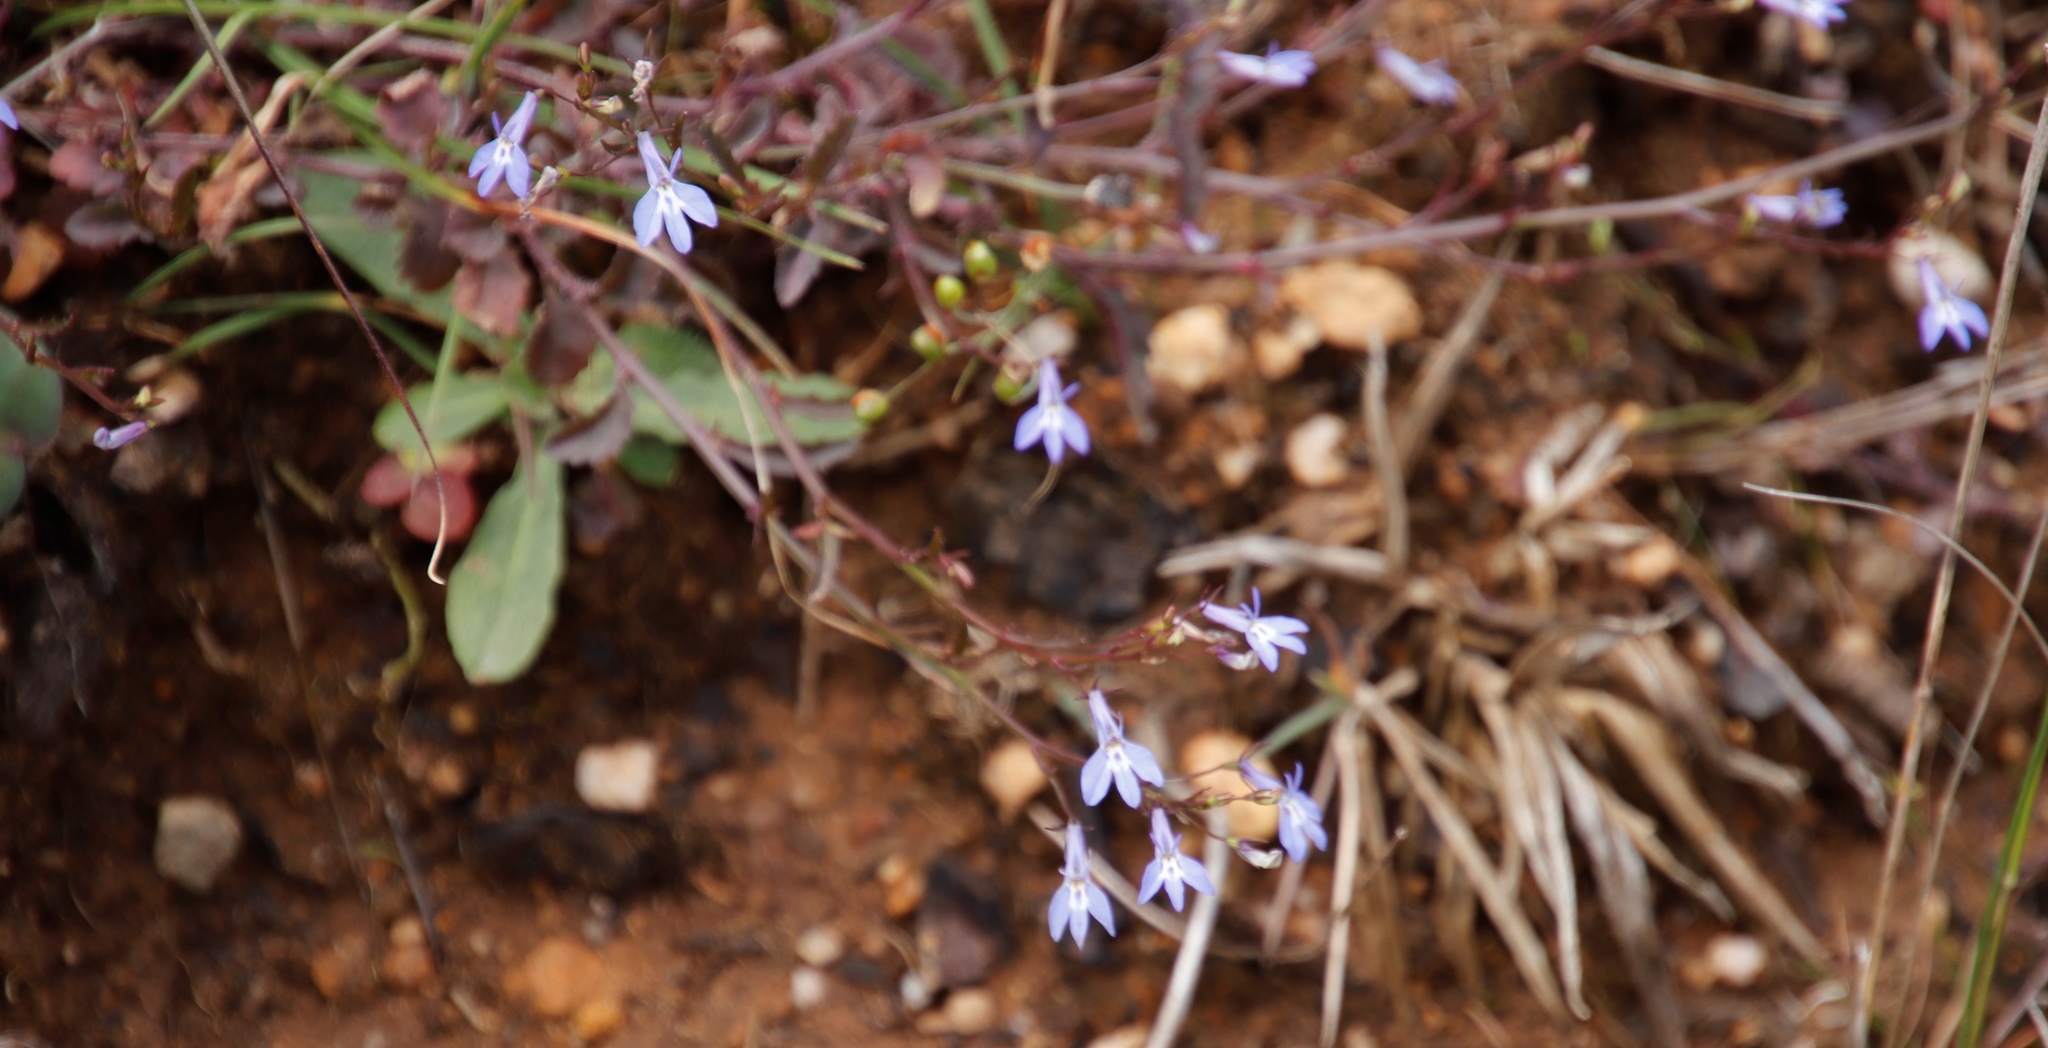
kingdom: Plantae
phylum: Tracheophyta
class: Magnoliopsida
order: Asterales
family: Campanulaceae
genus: Lobelia
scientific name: Lobelia erinus
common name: Edging lobelia
